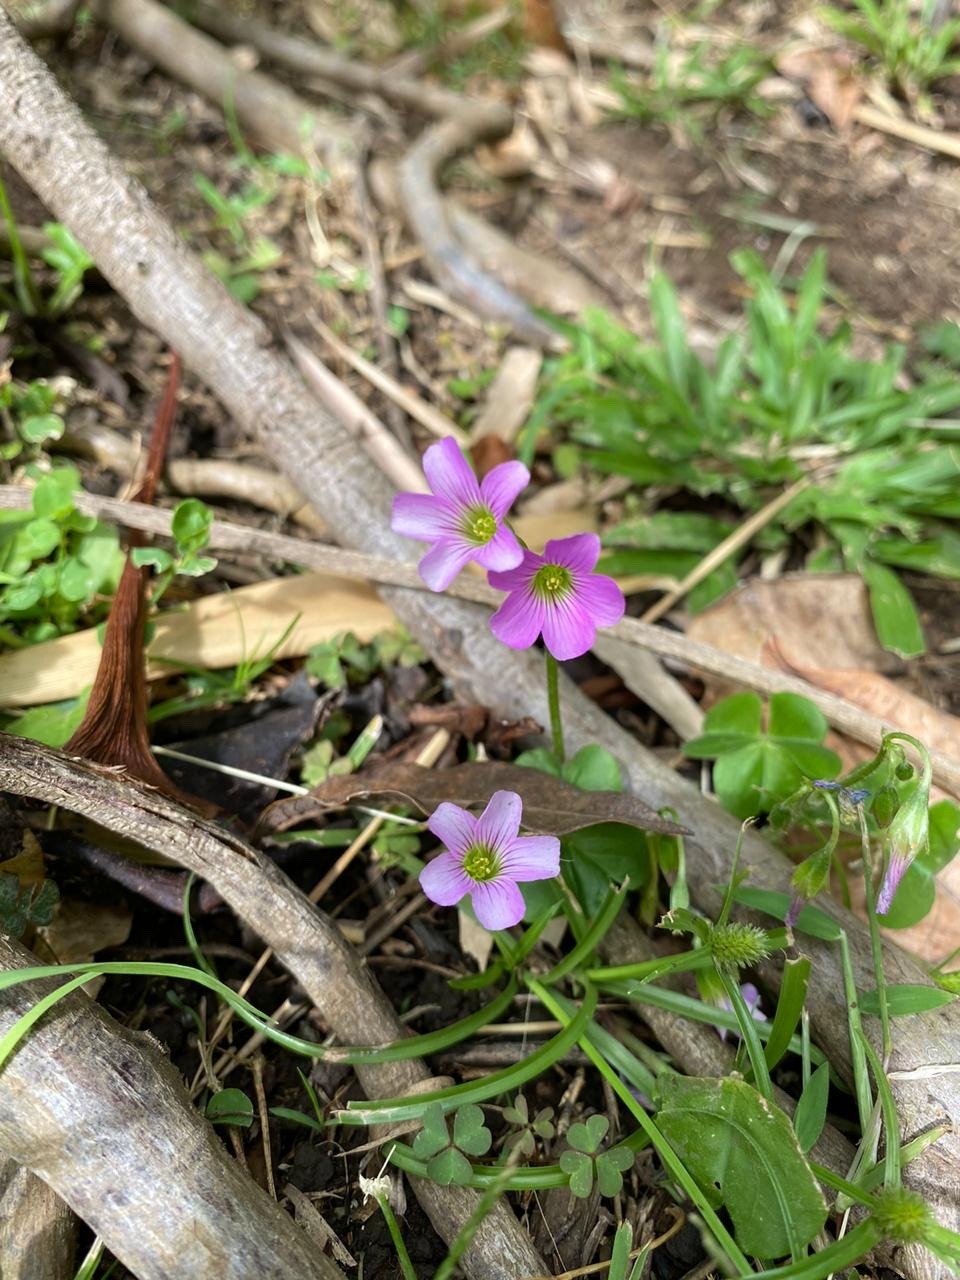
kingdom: Plantae
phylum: Tracheophyta
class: Magnoliopsida
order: Oxalidales
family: Oxalidaceae
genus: Oxalis
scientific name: Oxalis debilis
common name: Large-flowered pink-sorrel
